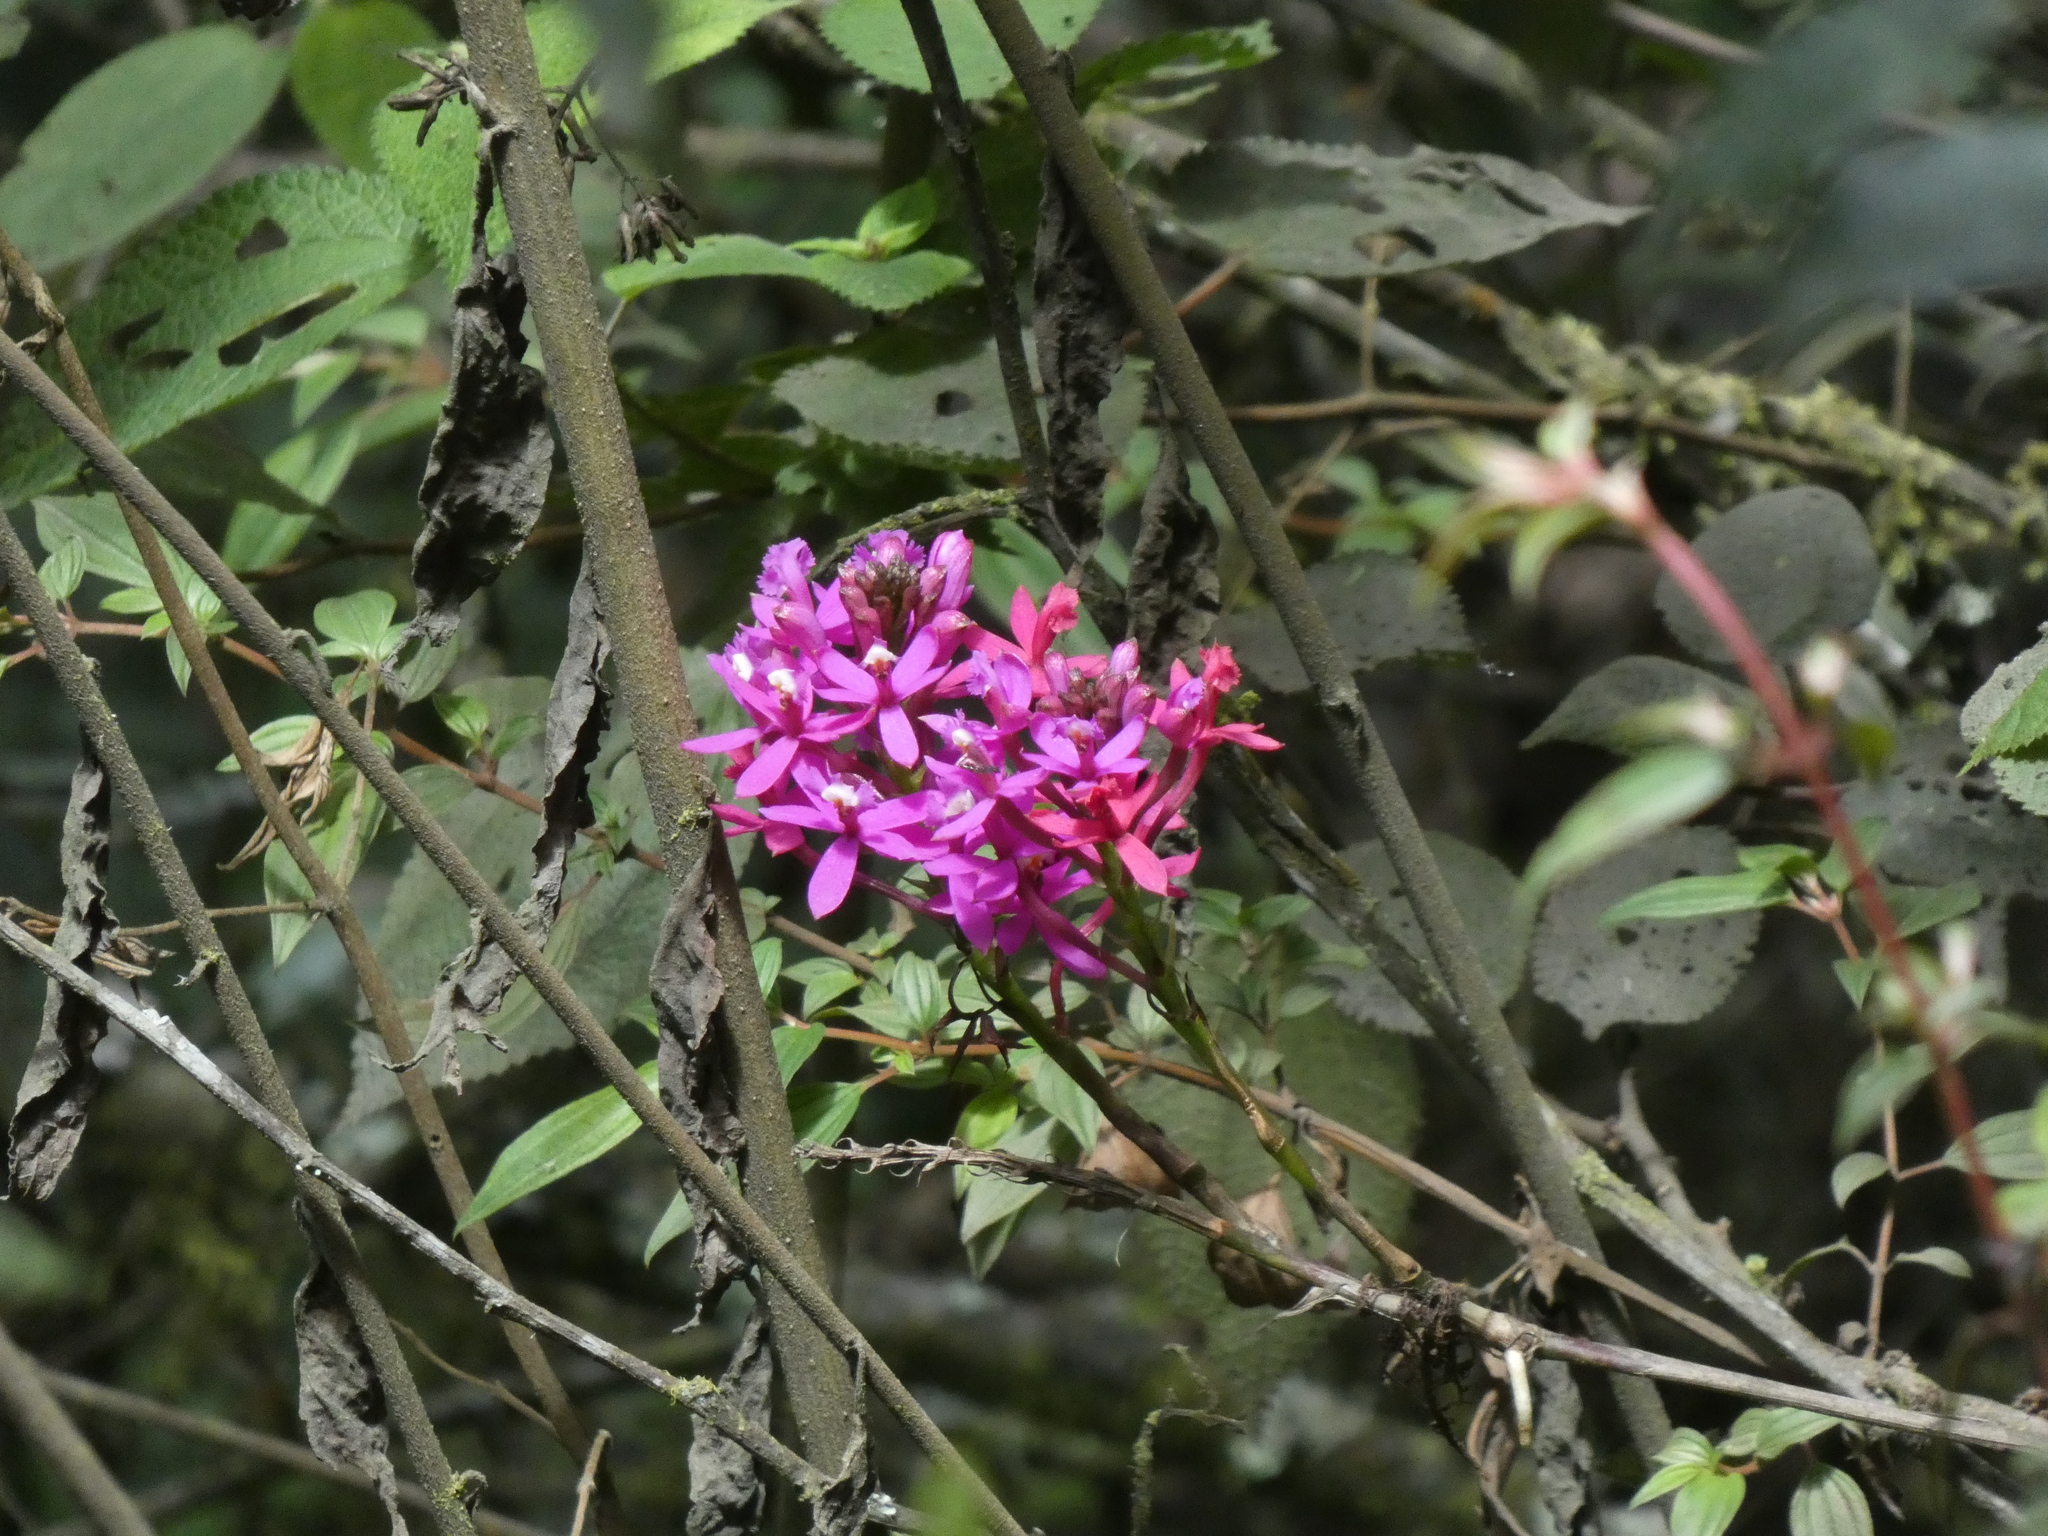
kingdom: Plantae
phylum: Tracheophyta
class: Liliopsida
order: Asparagales
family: Orchidaceae
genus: Epidendrum
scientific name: Epidendrum secundum
